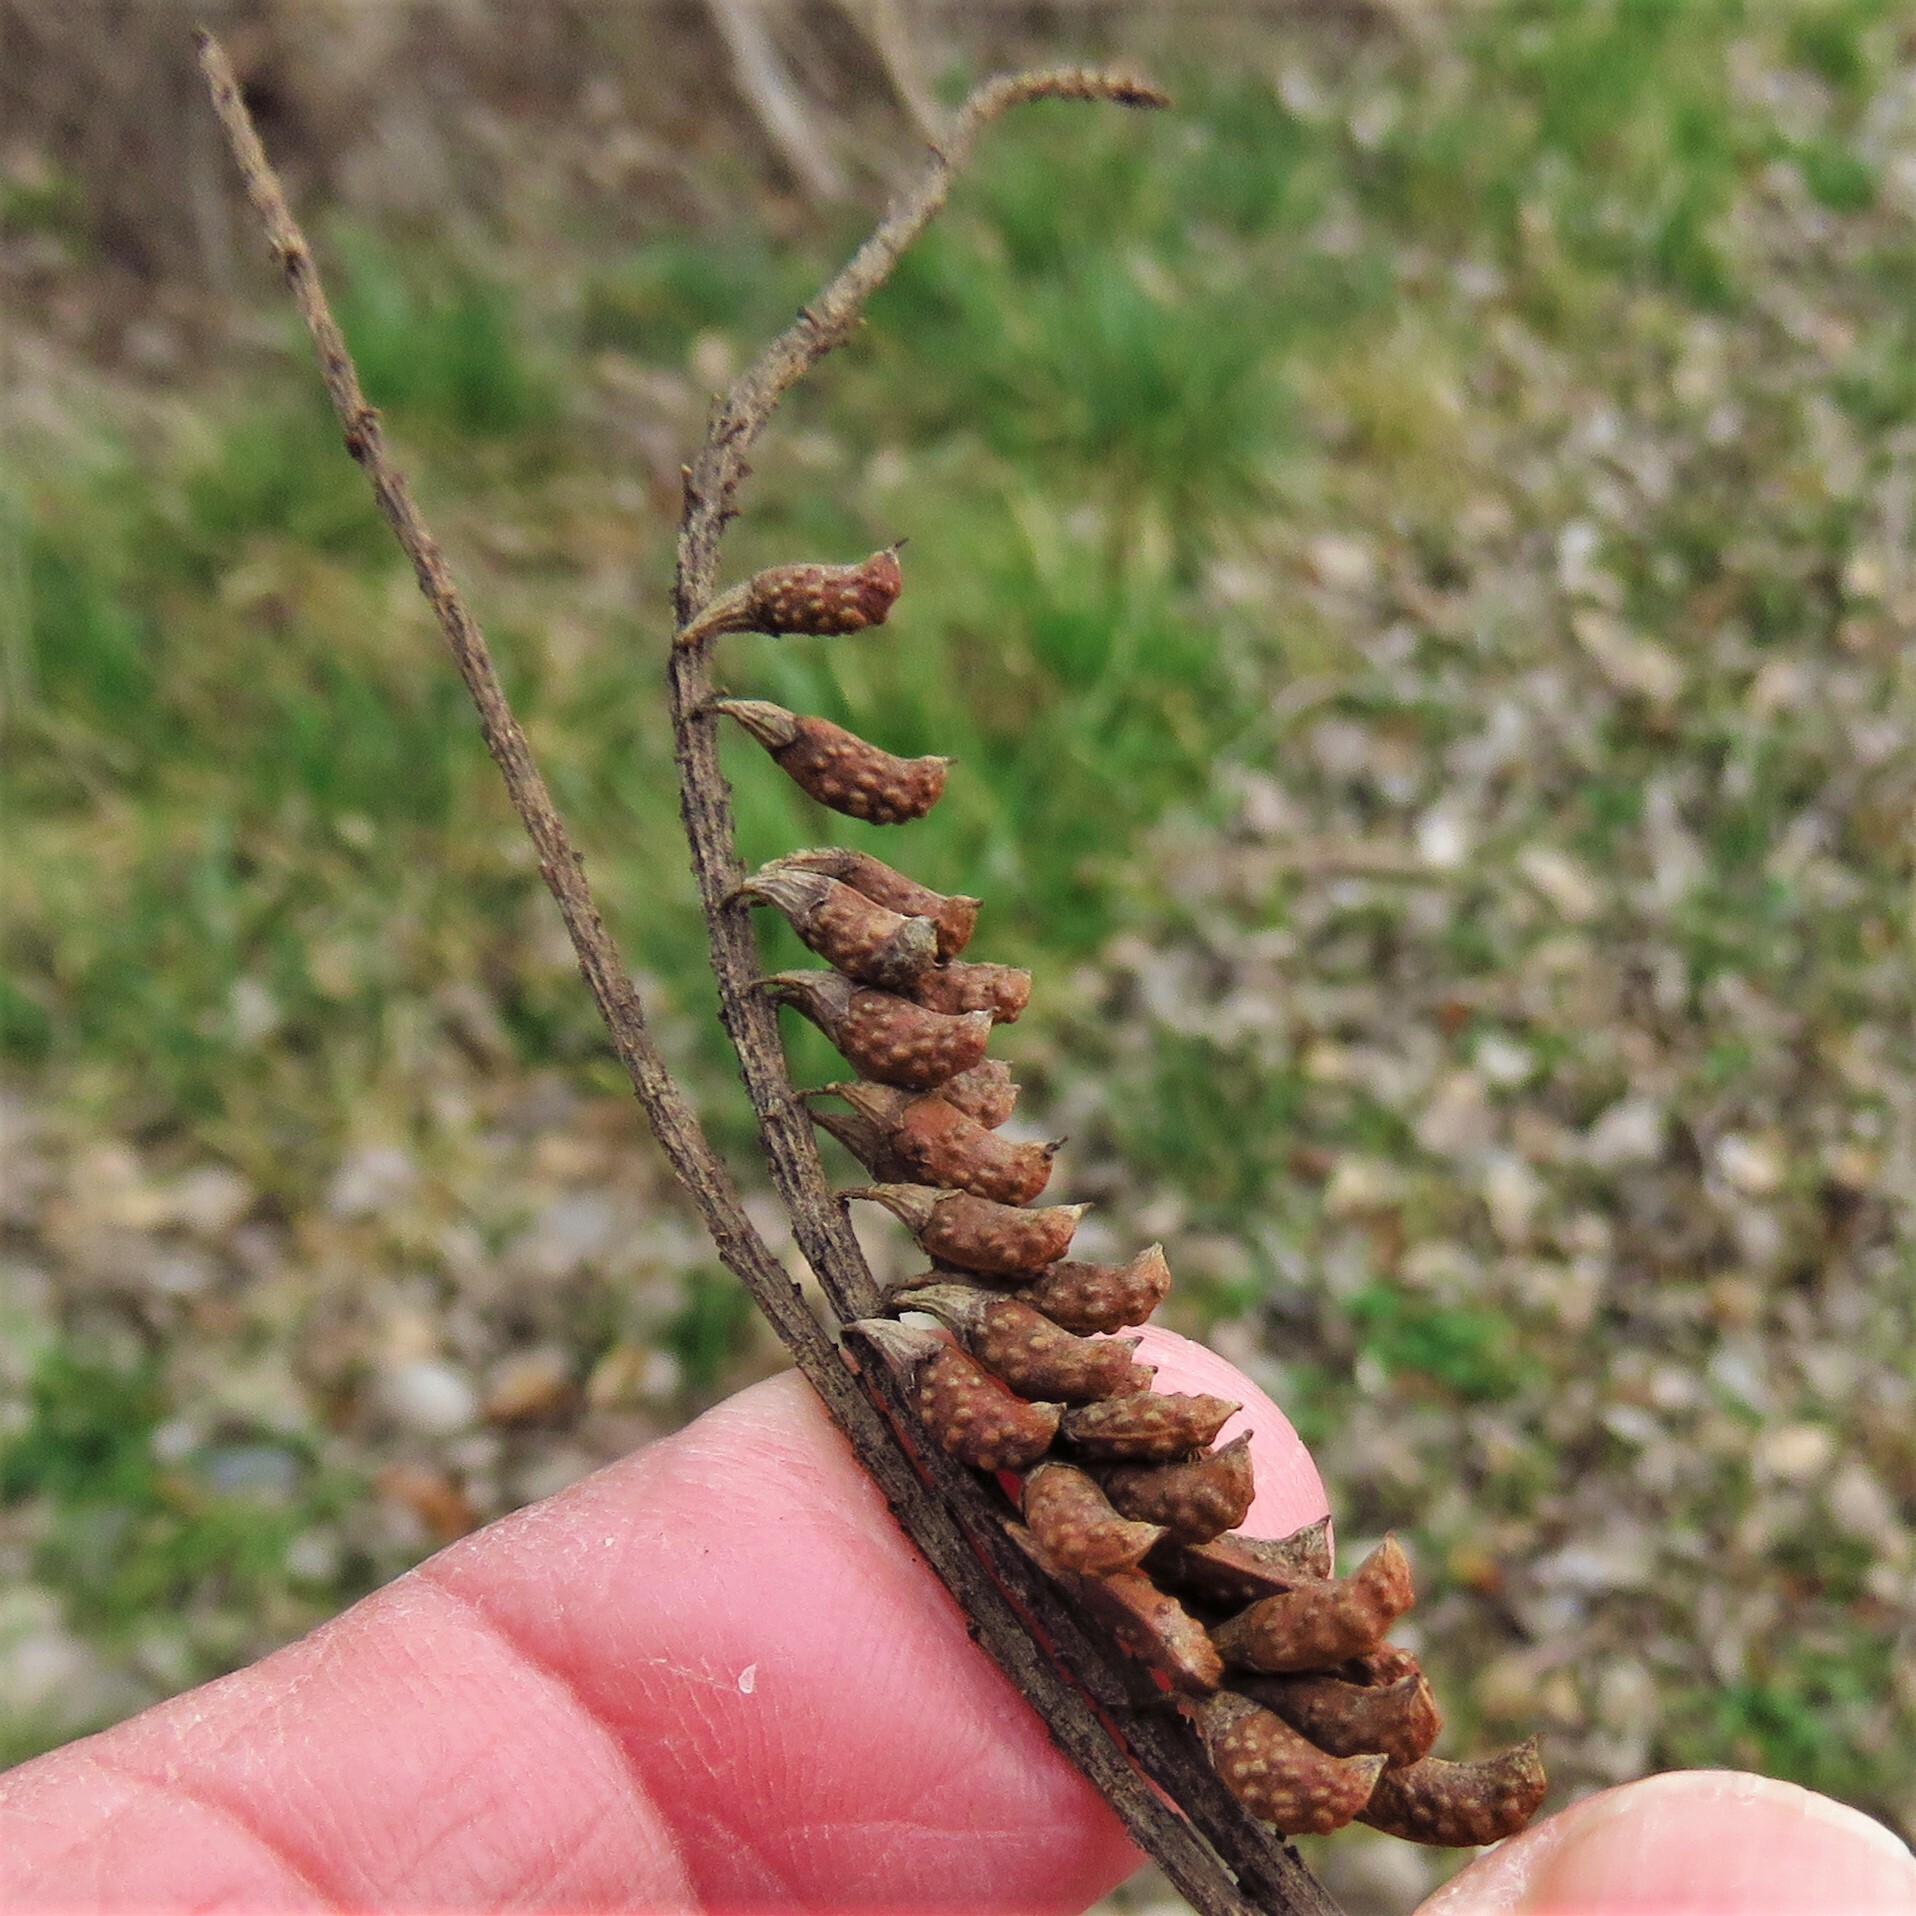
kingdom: Plantae
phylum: Tracheophyta
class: Magnoliopsida
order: Fabales
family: Fabaceae
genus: Amorpha
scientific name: Amorpha fruticosa
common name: False indigo
